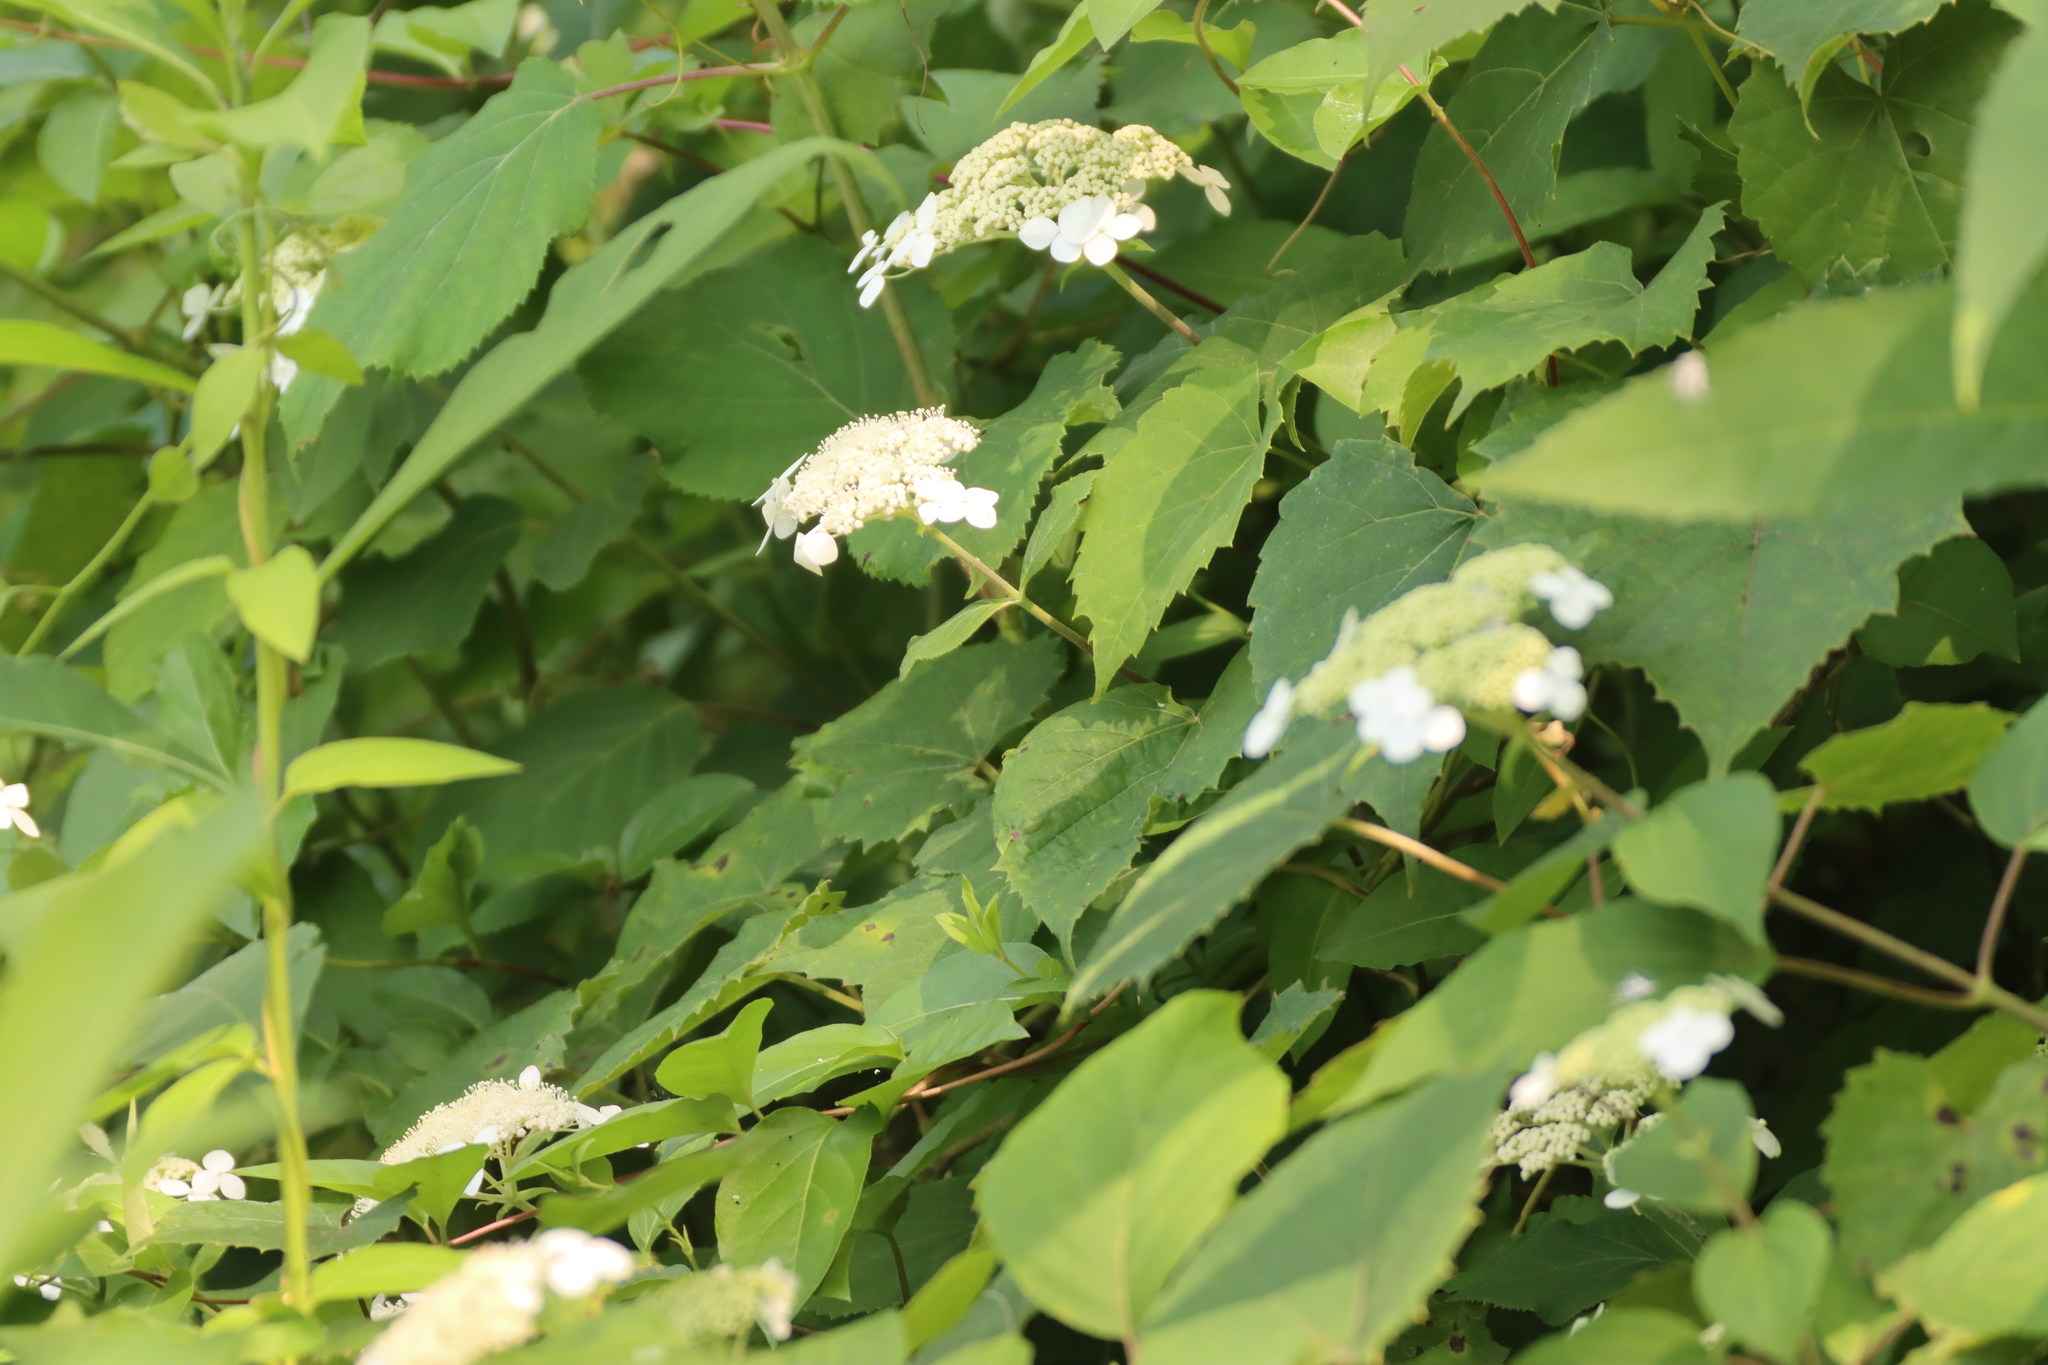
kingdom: Plantae
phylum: Tracheophyta
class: Magnoliopsida
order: Cornales
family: Hydrangeaceae
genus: Hydrangea
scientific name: Hydrangea arborescens
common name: Sevenbark
